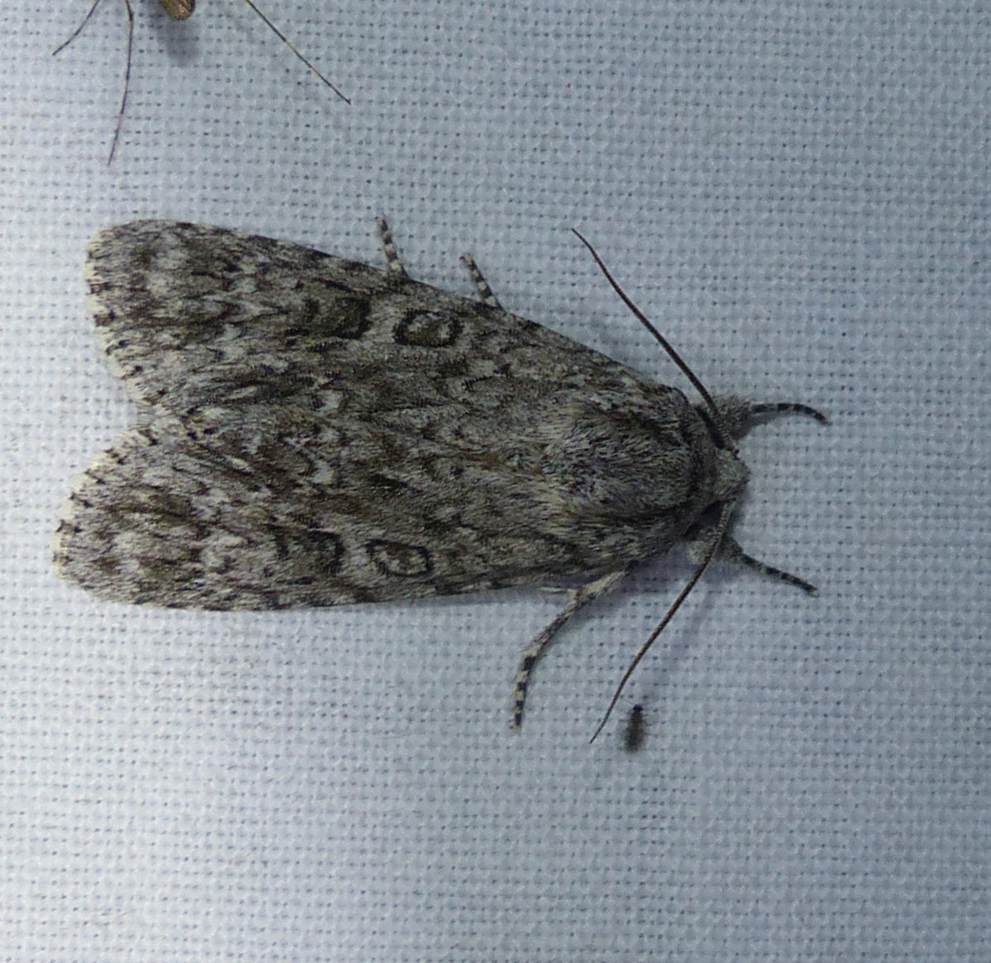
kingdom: Animalia
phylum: Arthropoda
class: Insecta
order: Lepidoptera
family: Noctuidae
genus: Acronicta
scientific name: Acronicta impleta
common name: Powdered dagger
